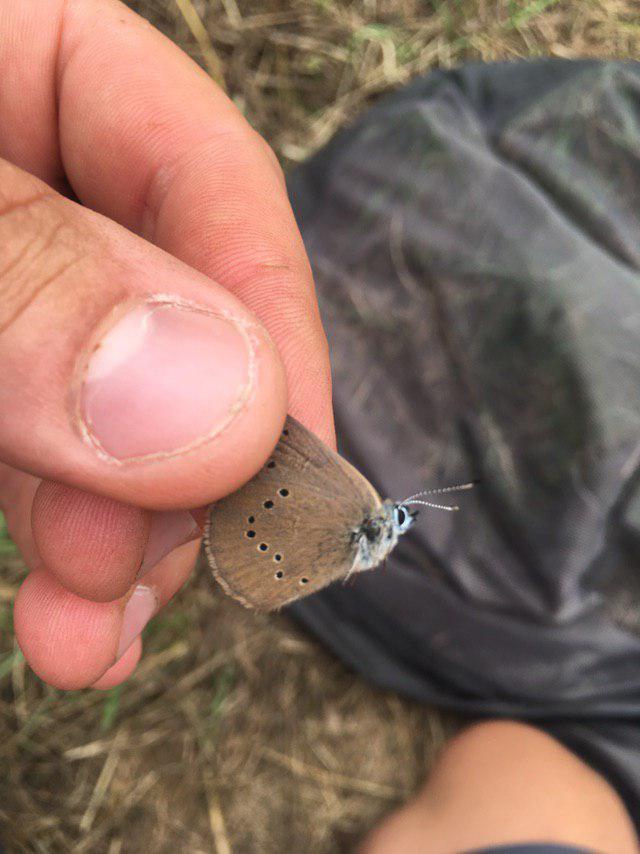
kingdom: Animalia
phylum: Arthropoda
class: Insecta
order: Lepidoptera
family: Lycaenidae
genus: Maculinea
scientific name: Maculinea nausithous
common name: Dusky large blue
